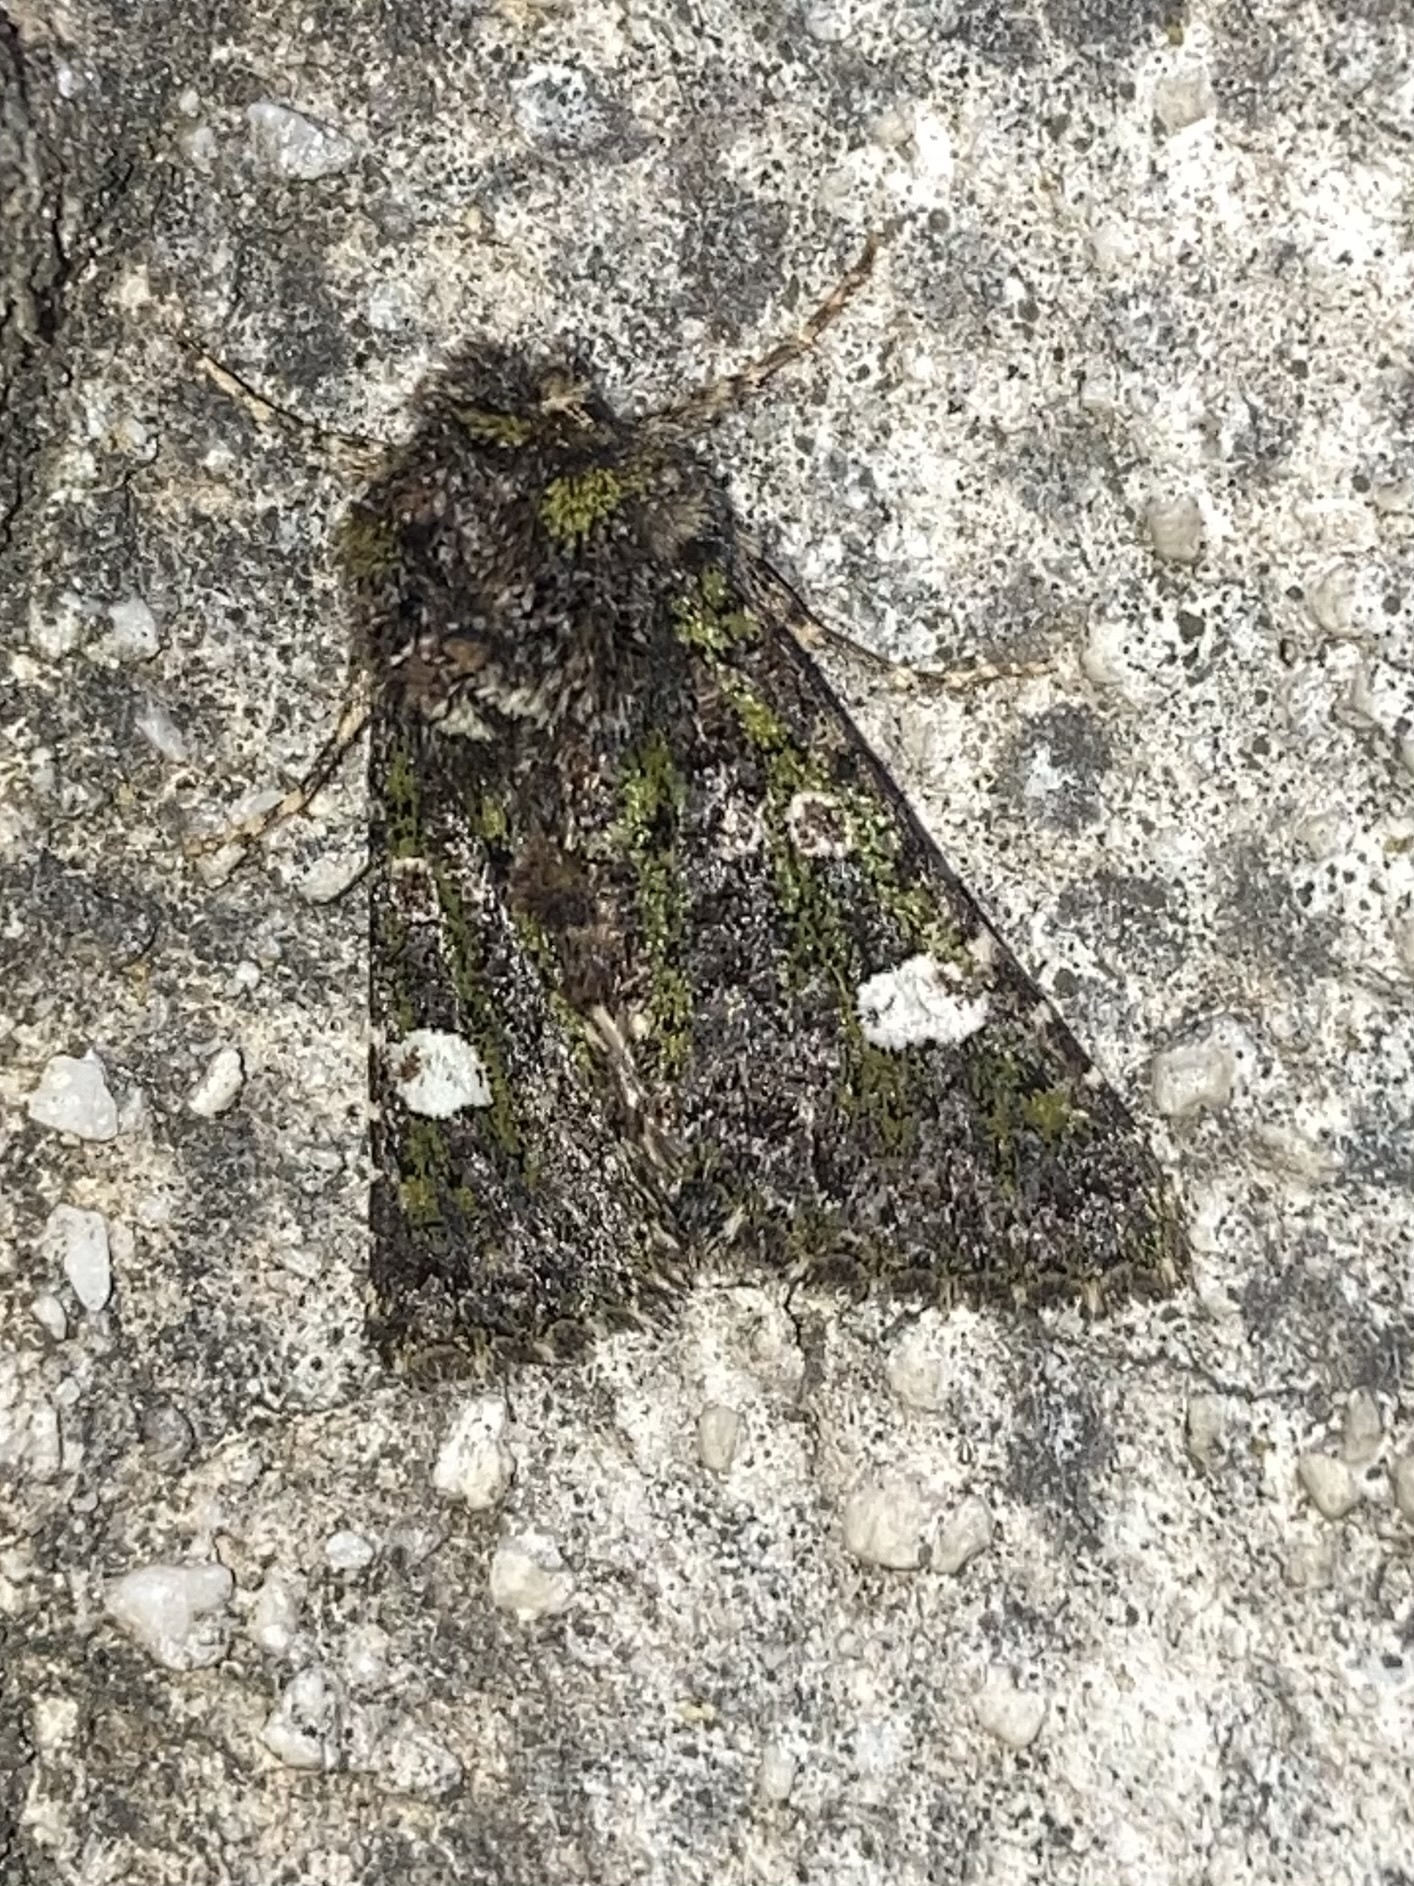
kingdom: Animalia
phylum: Arthropoda
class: Insecta
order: Lepidoptera
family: Noctuidae
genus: Valeria
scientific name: Valeria oleagina
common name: Green-brindled dot
